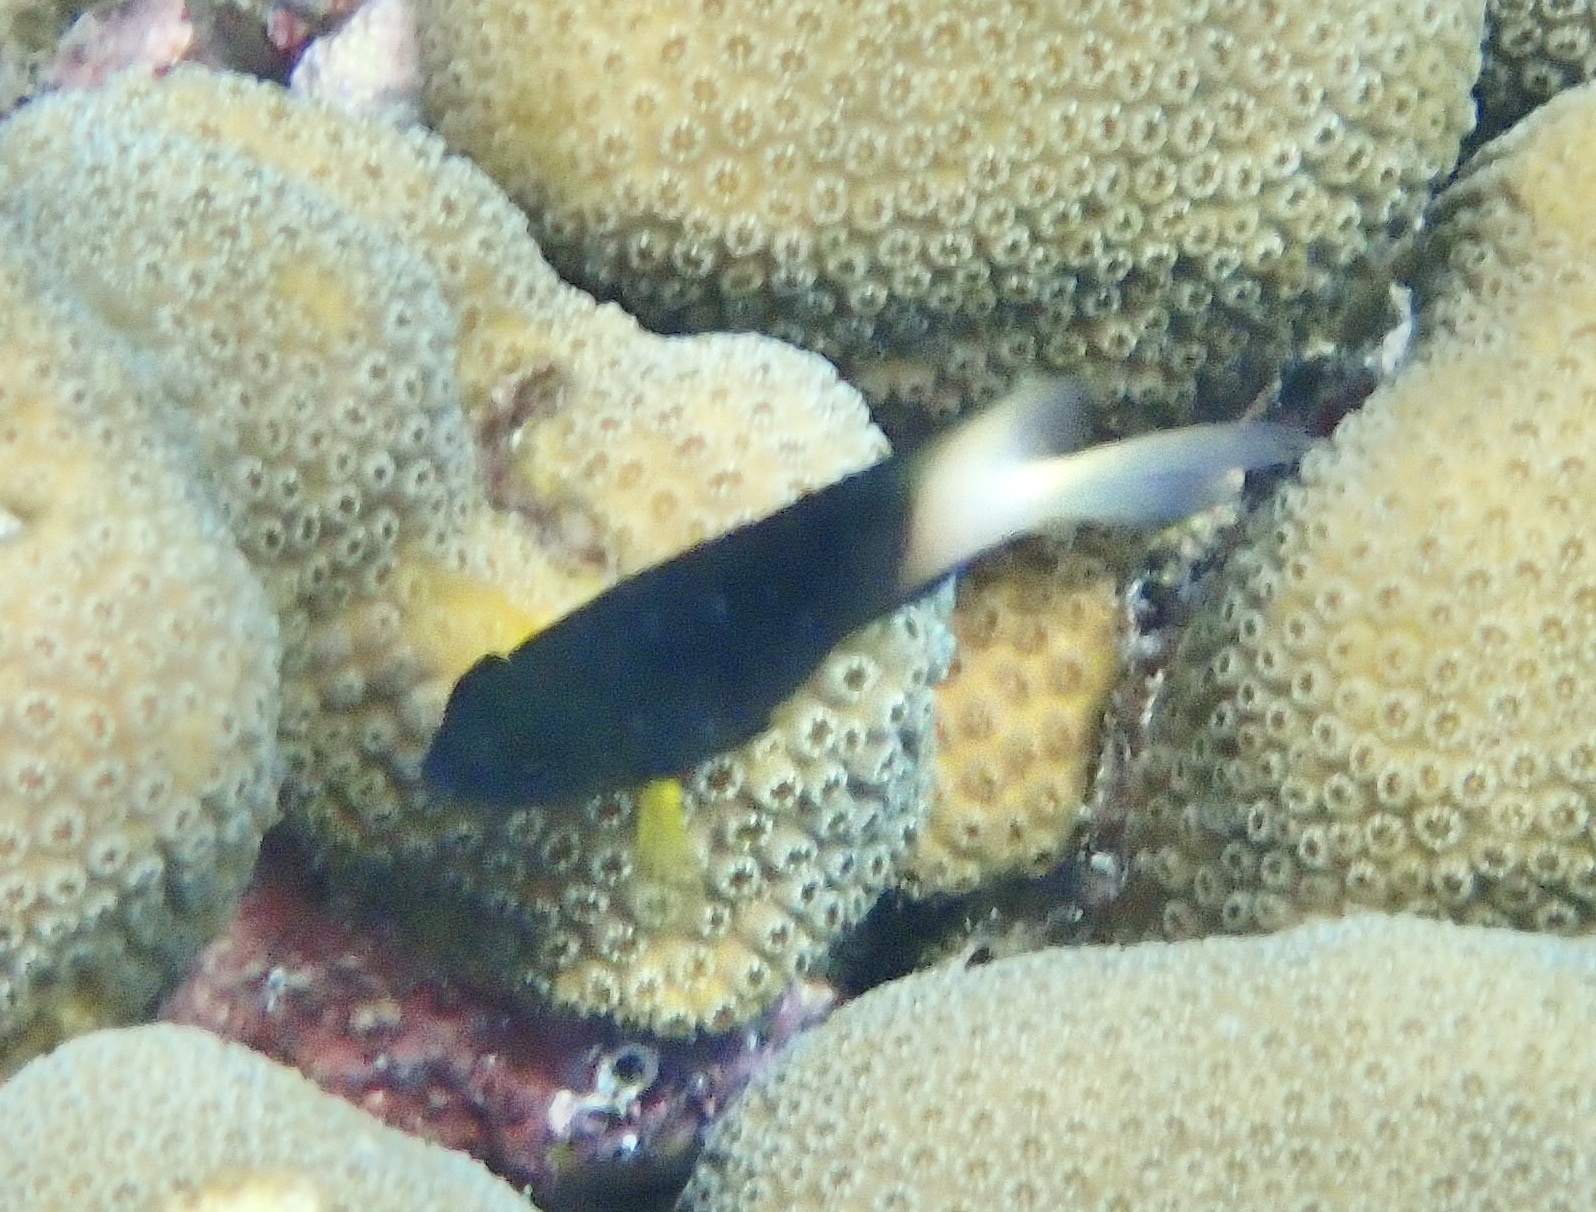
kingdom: Animalia
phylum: Chordata
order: Perciformes
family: Pomacentridae
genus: Stegastes
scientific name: Stegastes partitus
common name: Bicolor damselfish
